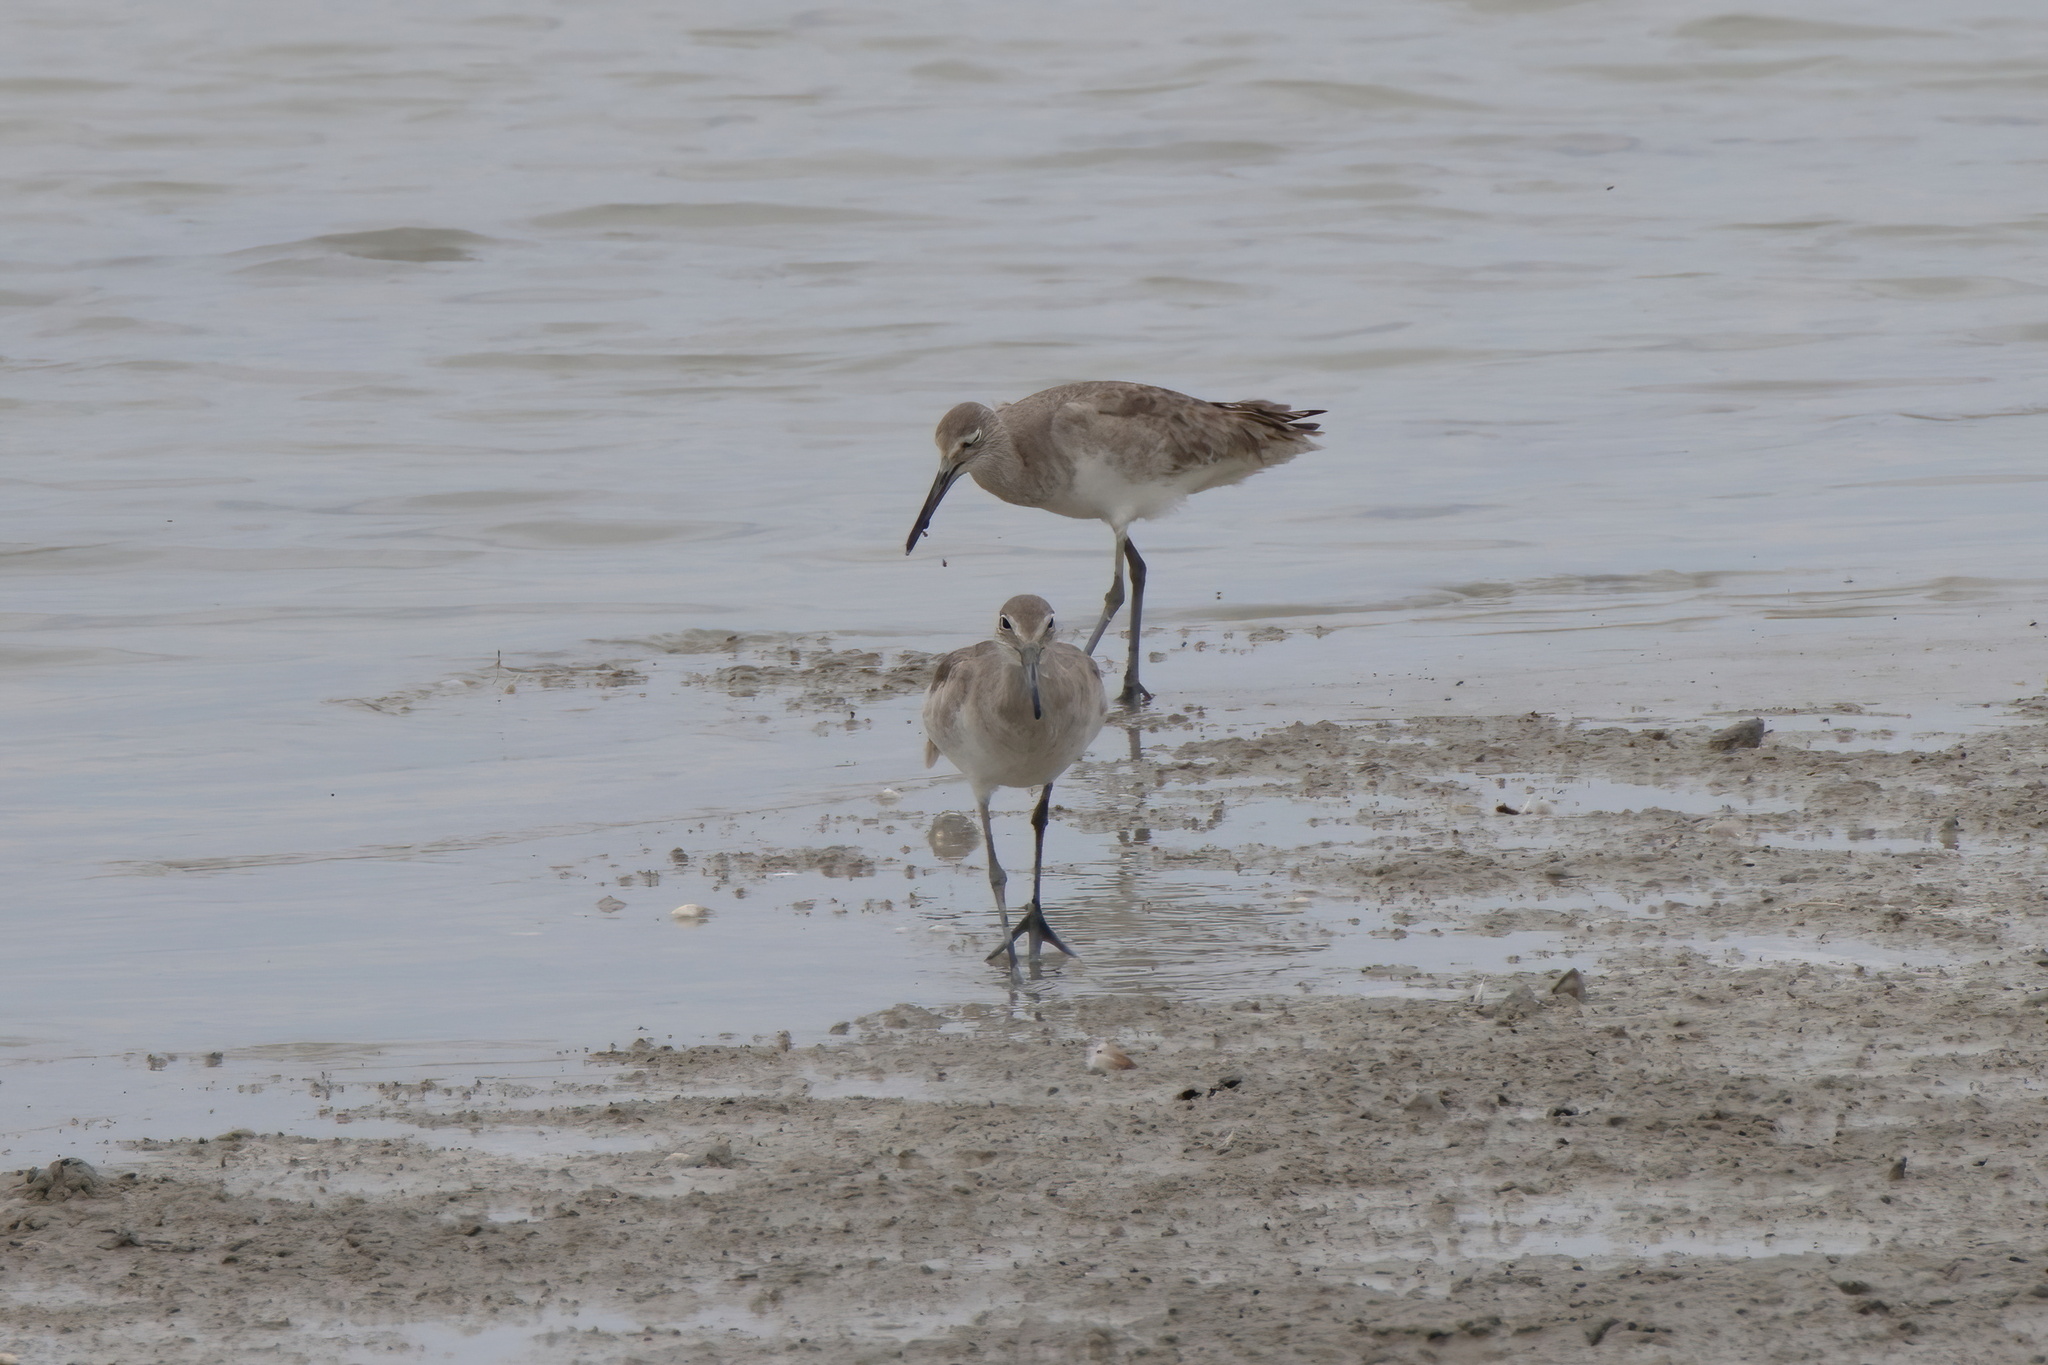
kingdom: Animalia
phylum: Chordata
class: Aves
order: Charadriiformes
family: Scolopacidae
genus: Tringa
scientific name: Tringa semipalmata
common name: Willet
